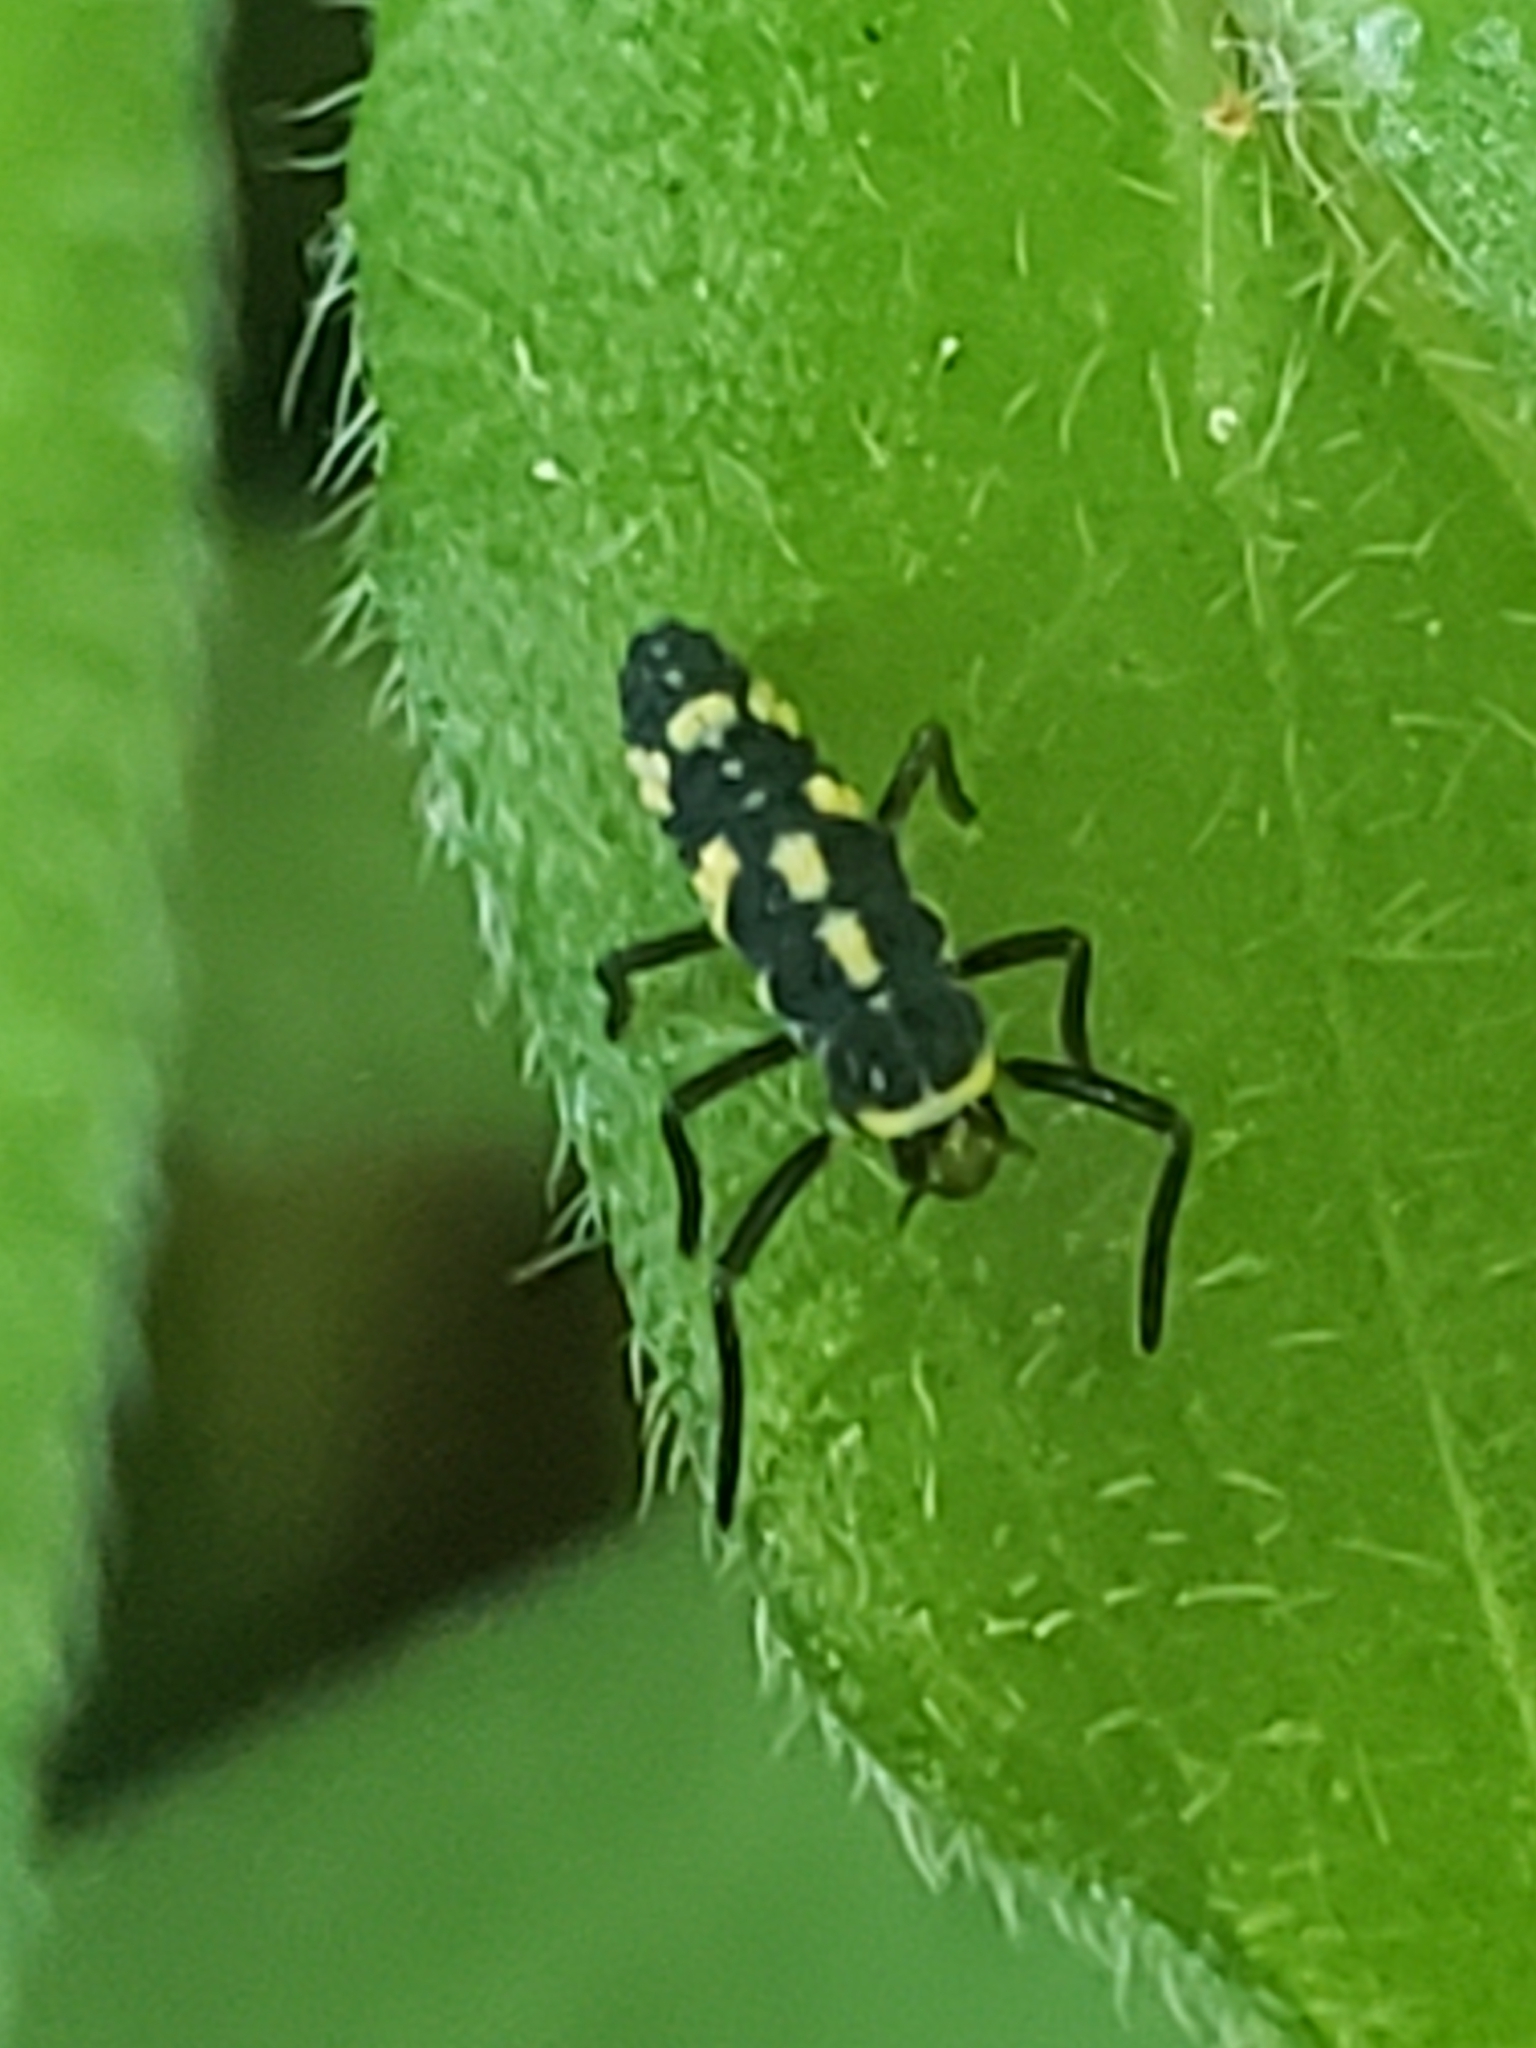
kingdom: Animalia
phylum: Arthropoda
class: Insecta
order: Coleoptera
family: Coccinellidae
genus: Propylaea
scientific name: Propylaea quatuordecimpunctata
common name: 14-spotted ladybird beetle
